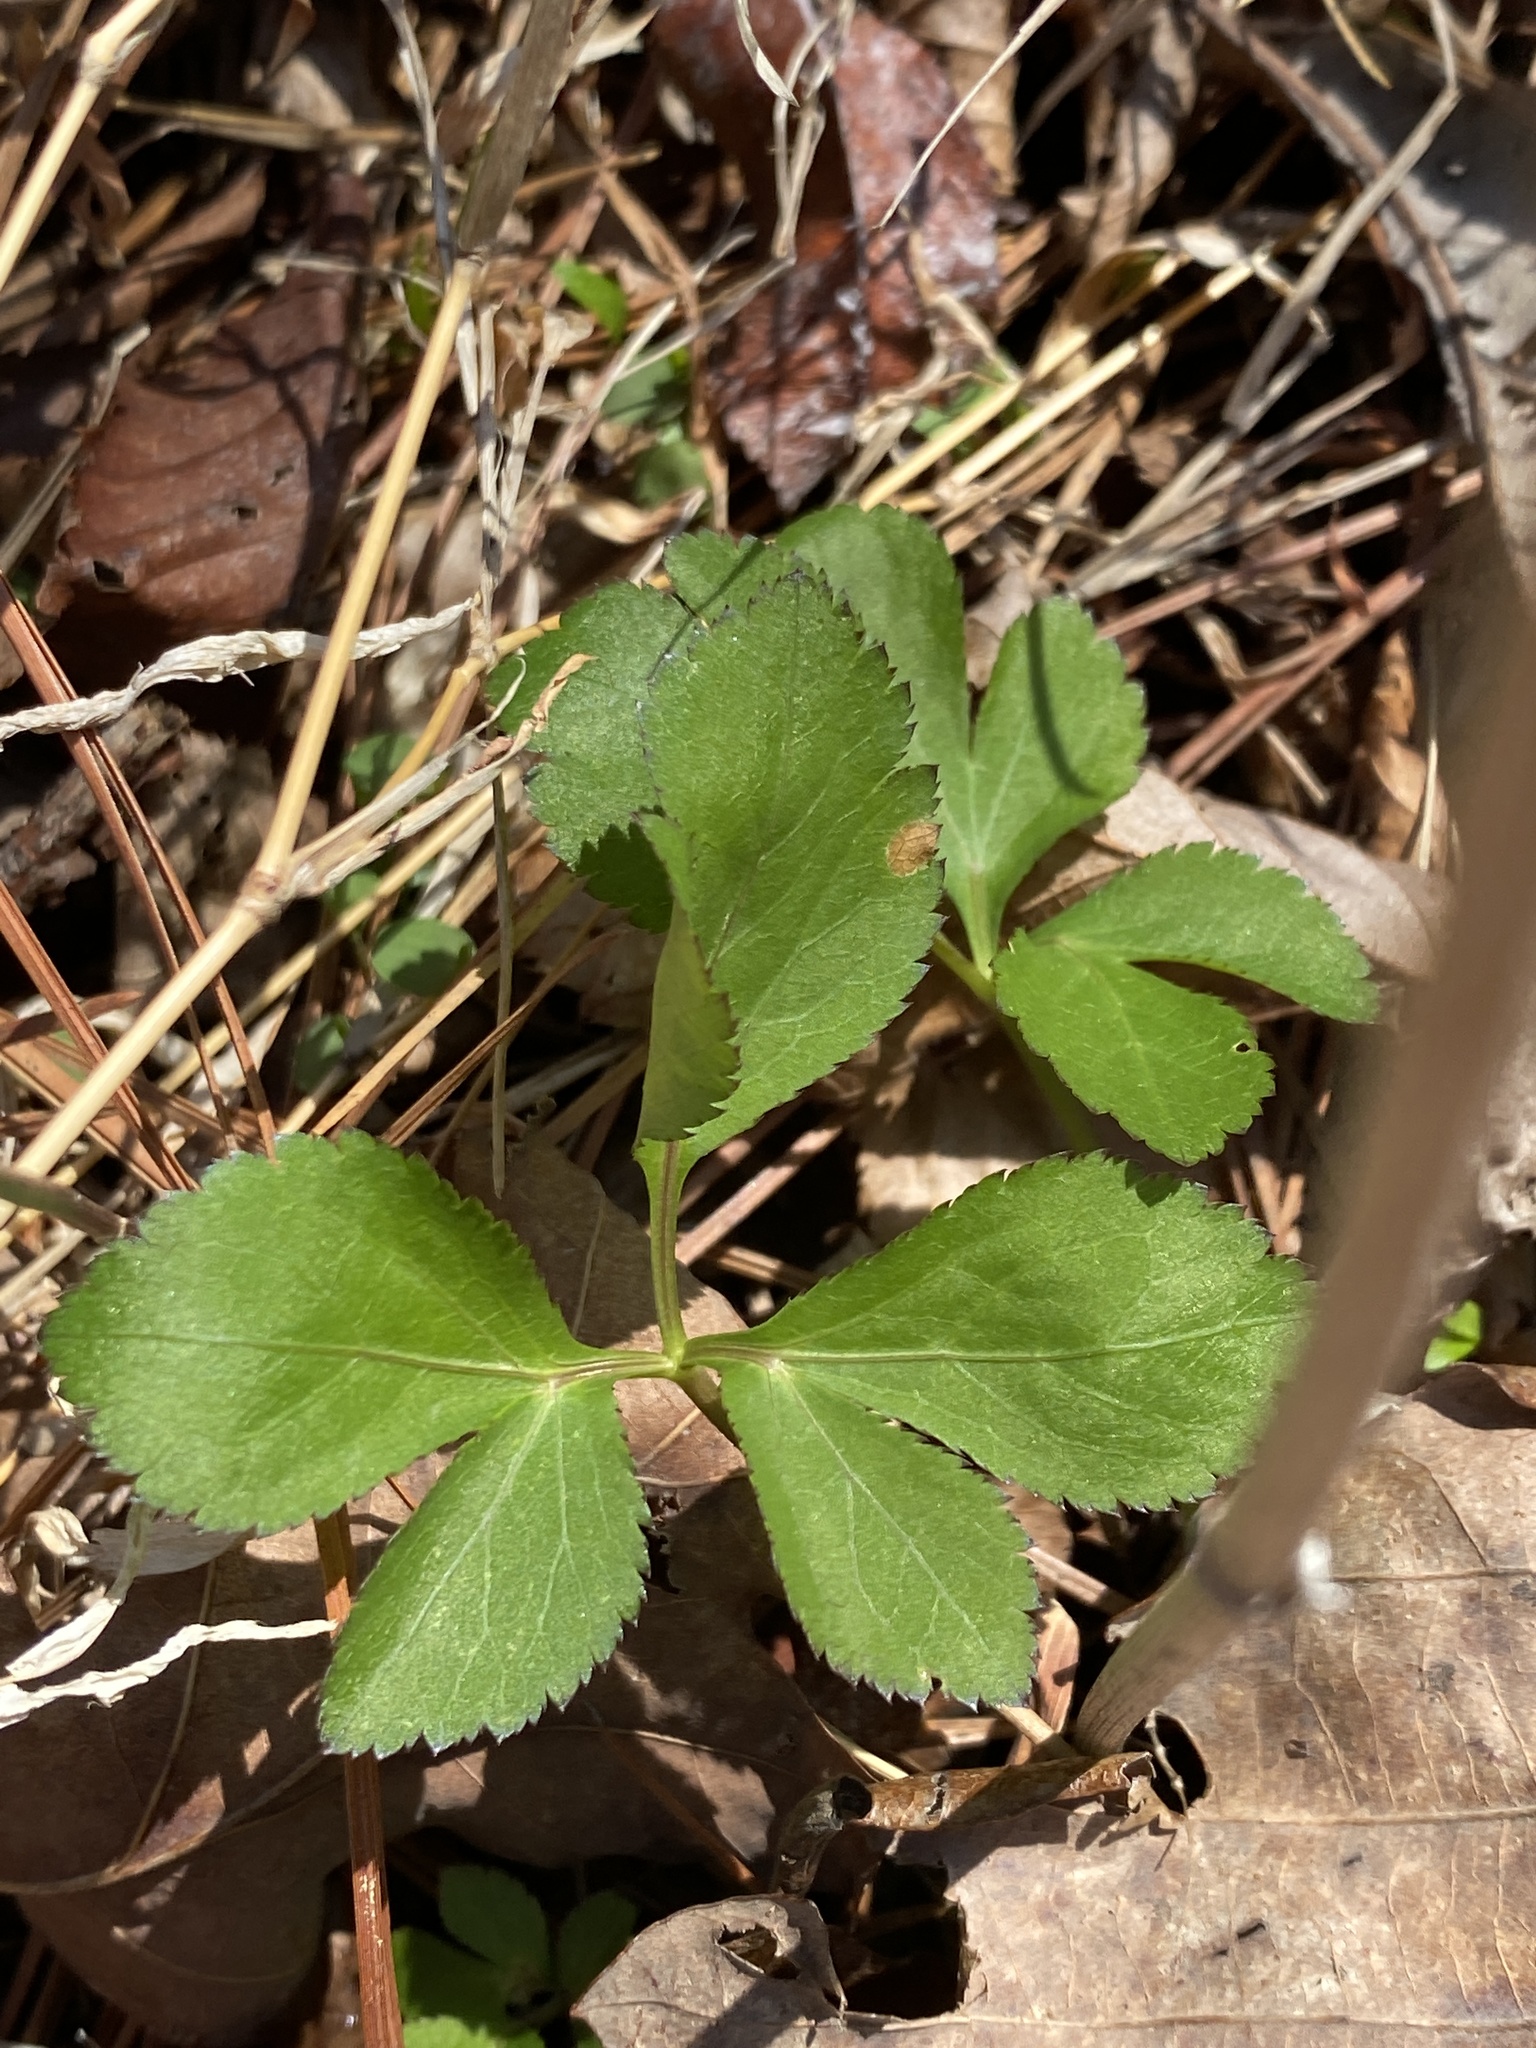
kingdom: Plantae
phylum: Tracheophyta
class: Magnoliopsida
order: Apiales
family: Apiaceae
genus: Cryptotaenia
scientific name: Cryptotaenia canadensis
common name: Honewort
